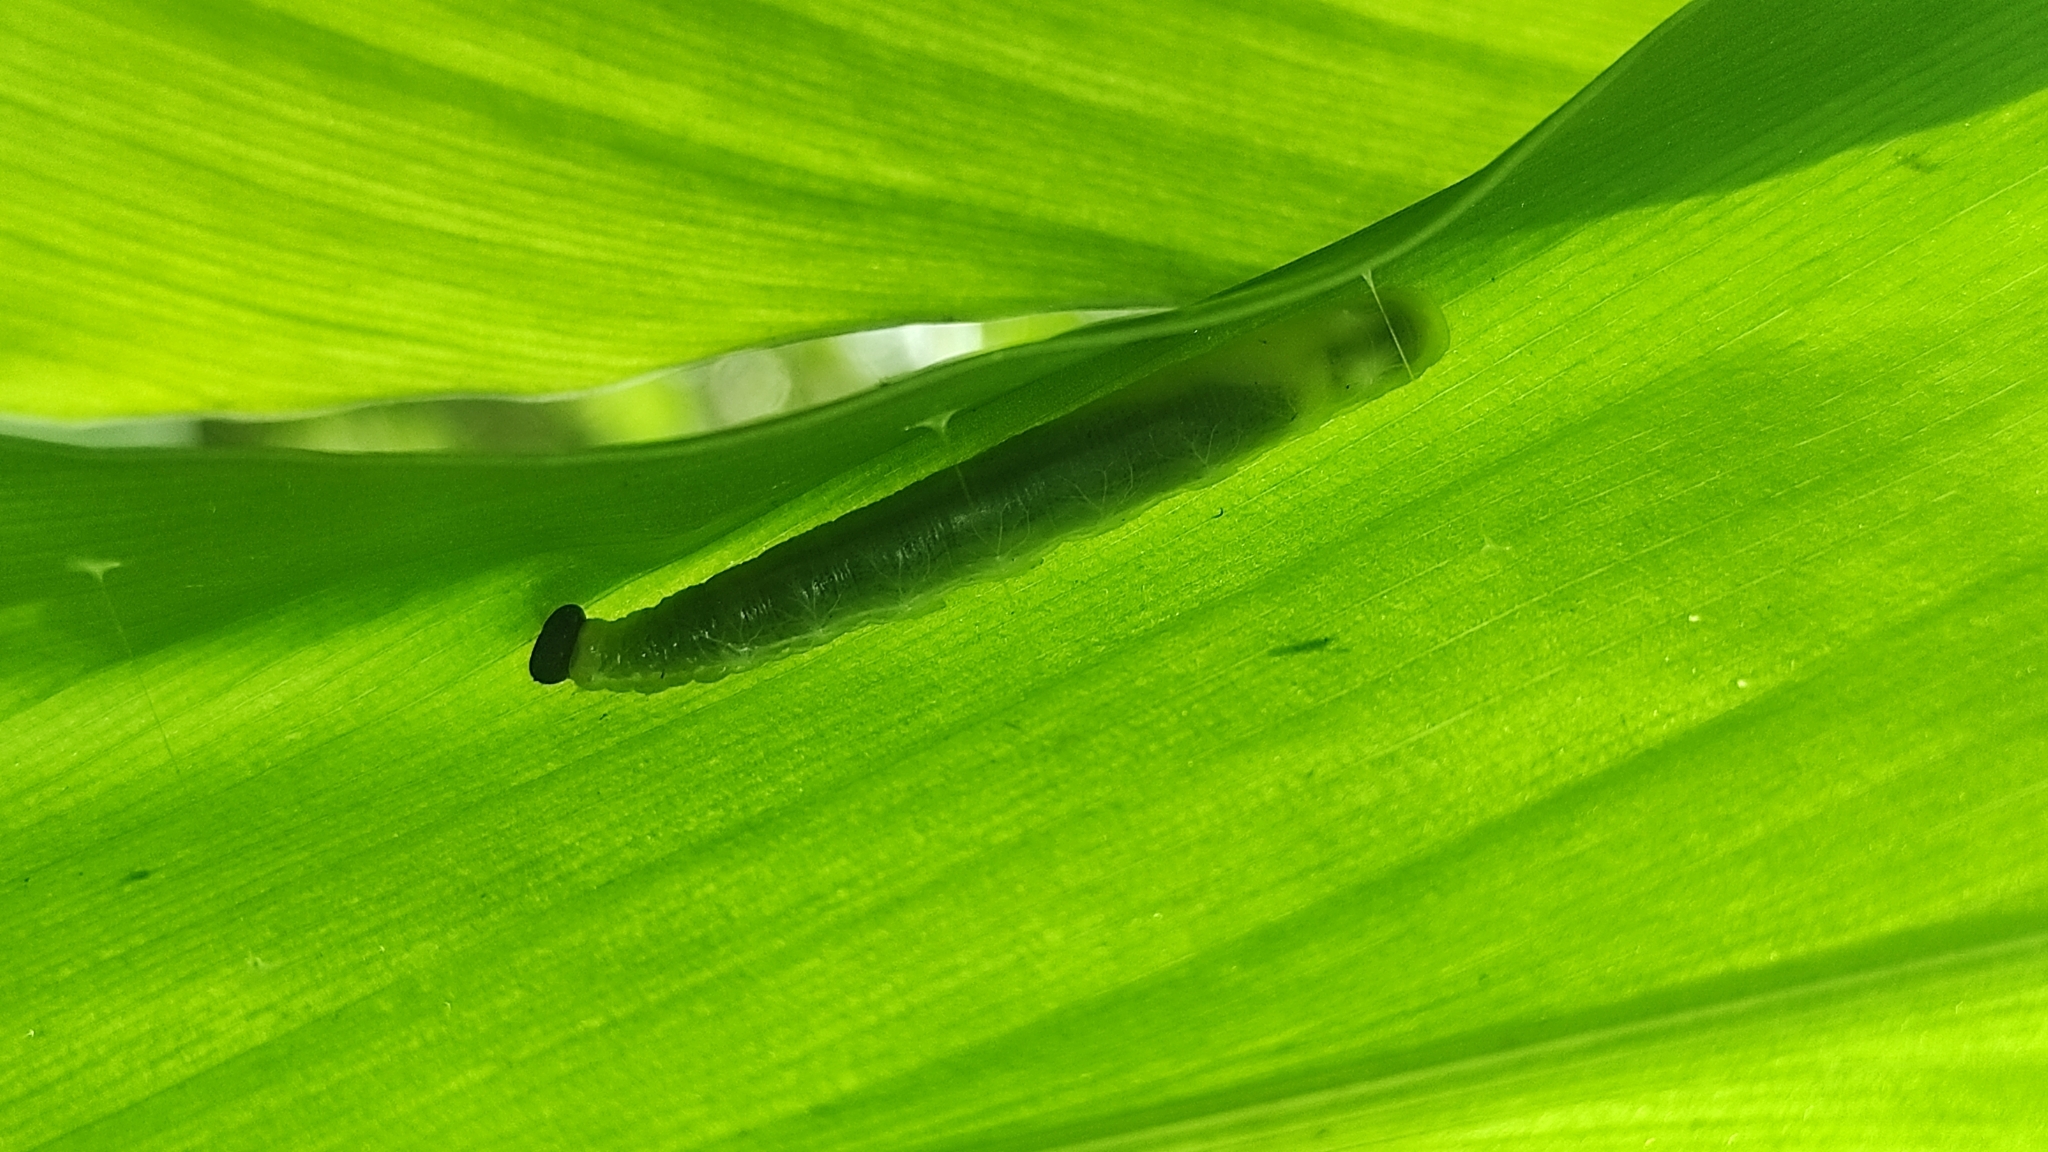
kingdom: Animalia
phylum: Arthropoda
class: Insecta
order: Lepidoptera
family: Hesperiidae
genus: Udaspes
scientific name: Udaspes folus
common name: Grass demon
